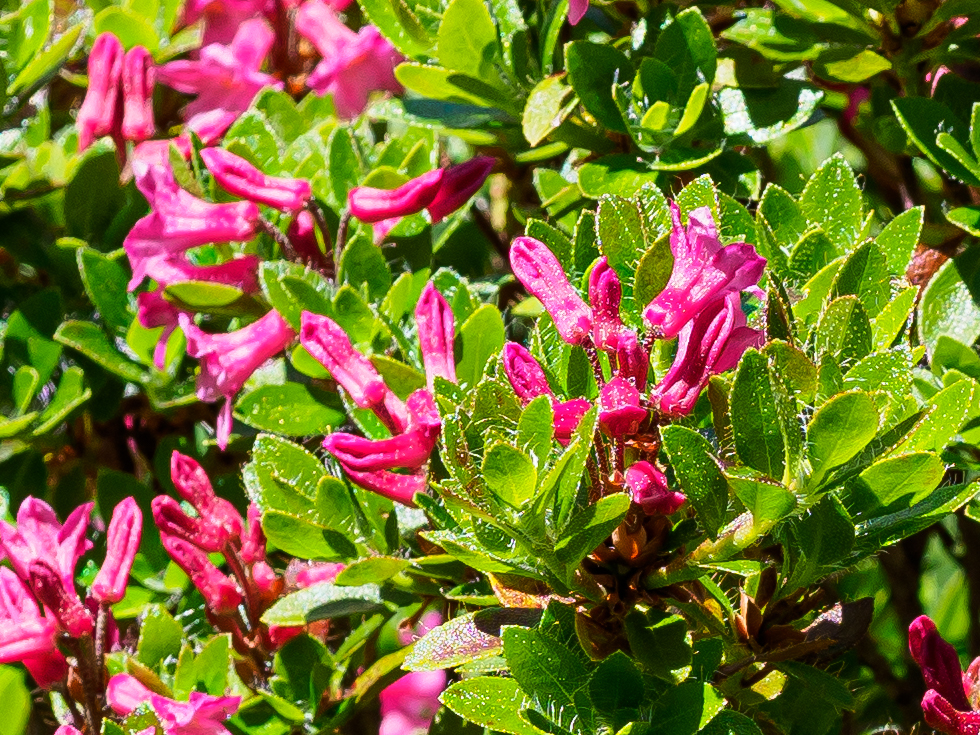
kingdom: Plantae
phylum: Tracheophyta
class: Magnoliopsida
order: Ericales
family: Ericaceae
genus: Rhododendron
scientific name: Rhododendron hirsutum
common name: Hairy alpenrose
